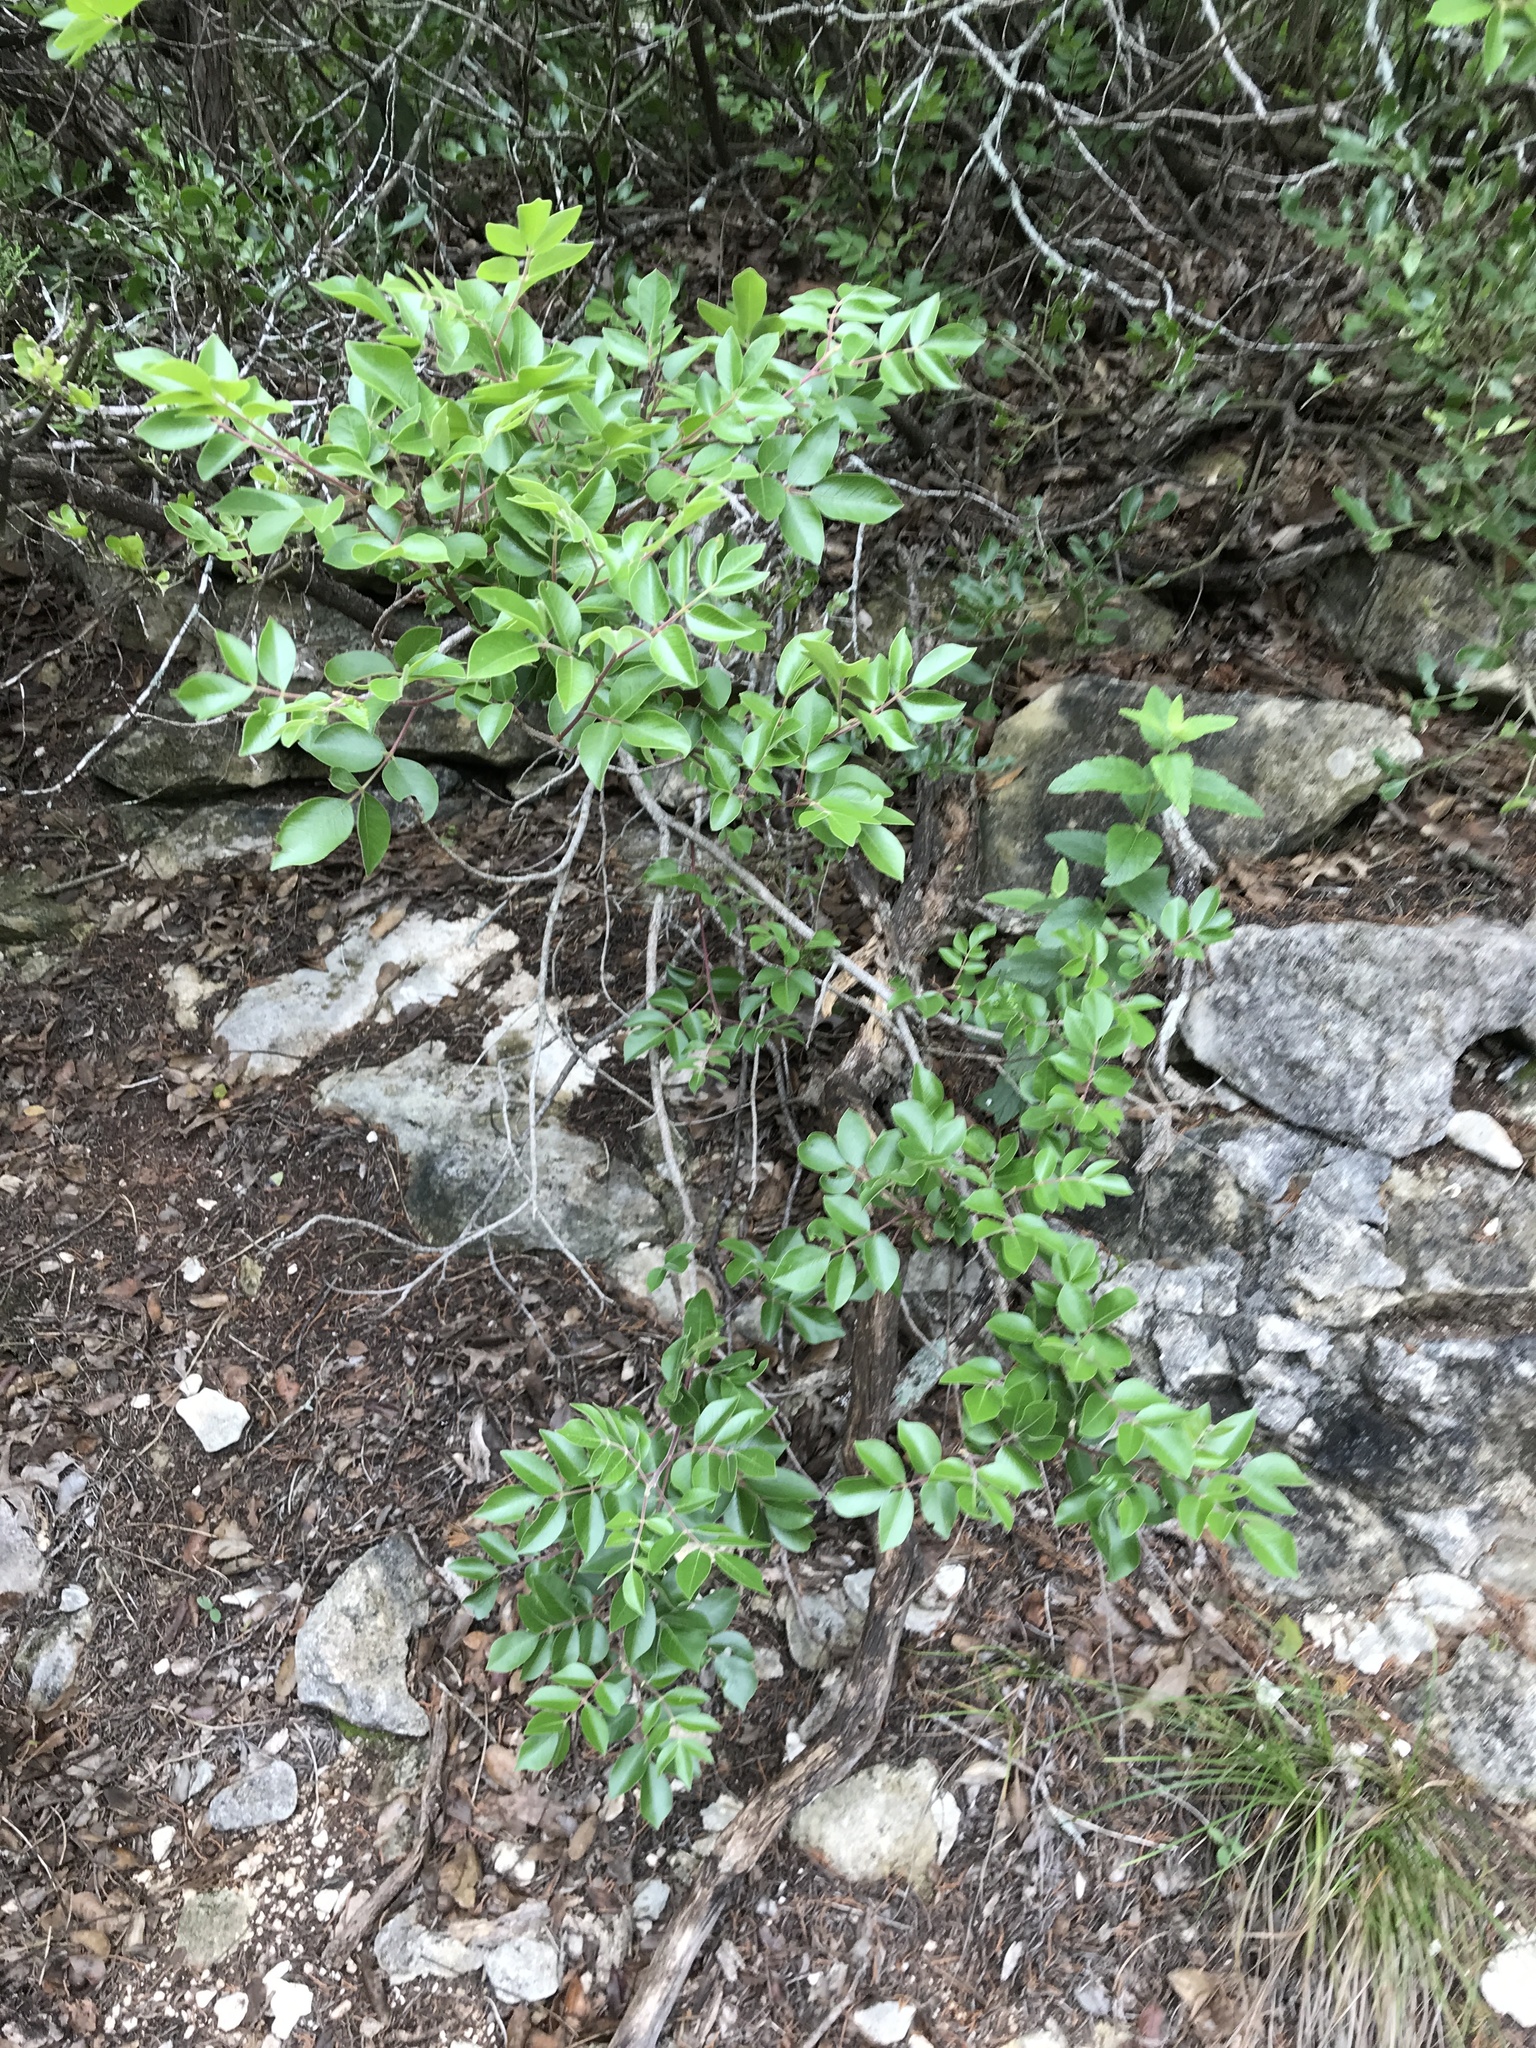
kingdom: Plantae
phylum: Tracheophyta
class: Magnoliopsida
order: Sapindales
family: Anacardiaceae
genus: Rhus
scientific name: Rhus virens
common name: Evergreen sumac
